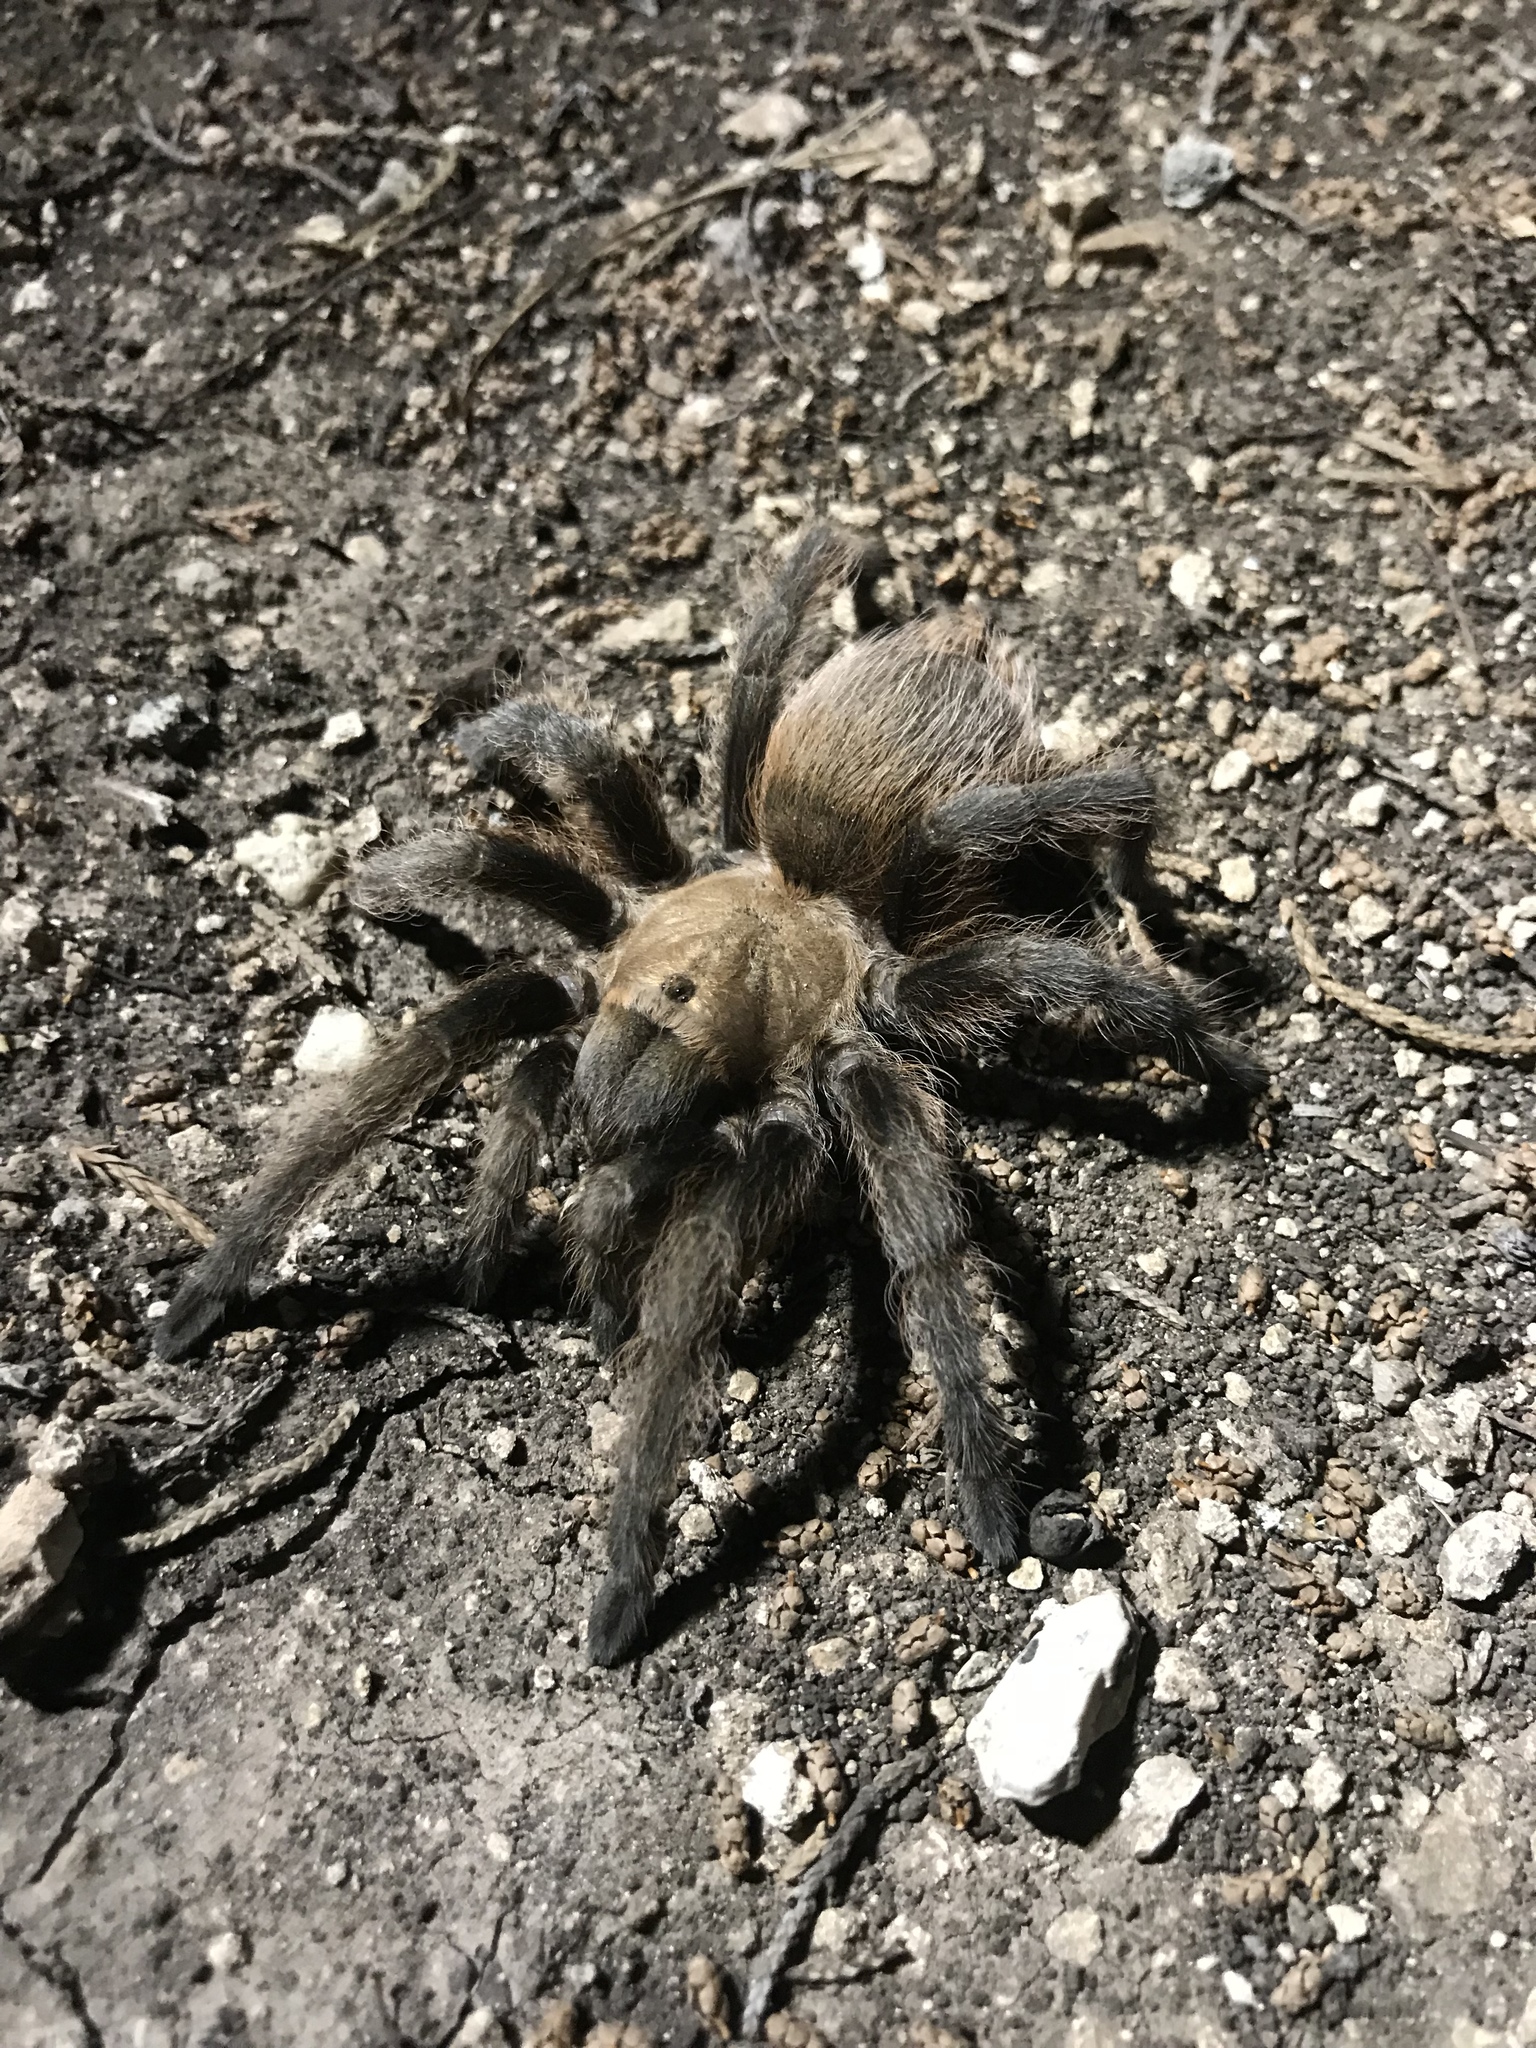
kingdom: Animalia
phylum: Arthropoda
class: Arachnida
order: Araneae
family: Theraphosidae
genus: Aphonopelma
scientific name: Aphonopelma hentzi
